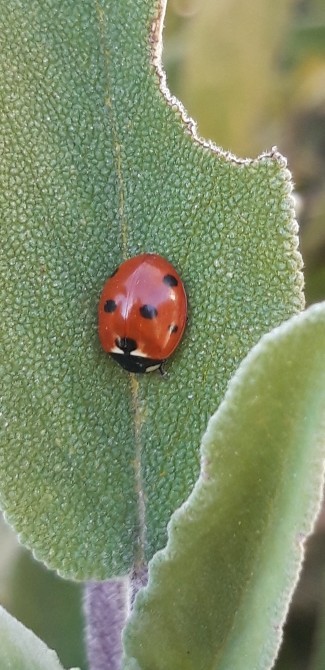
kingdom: Animalia
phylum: Arthropoda
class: Insecta
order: Coleoptera
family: Coccinellidae
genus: Coccinella
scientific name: Coccinella septempunctata
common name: Sevenspotted lady beetle
